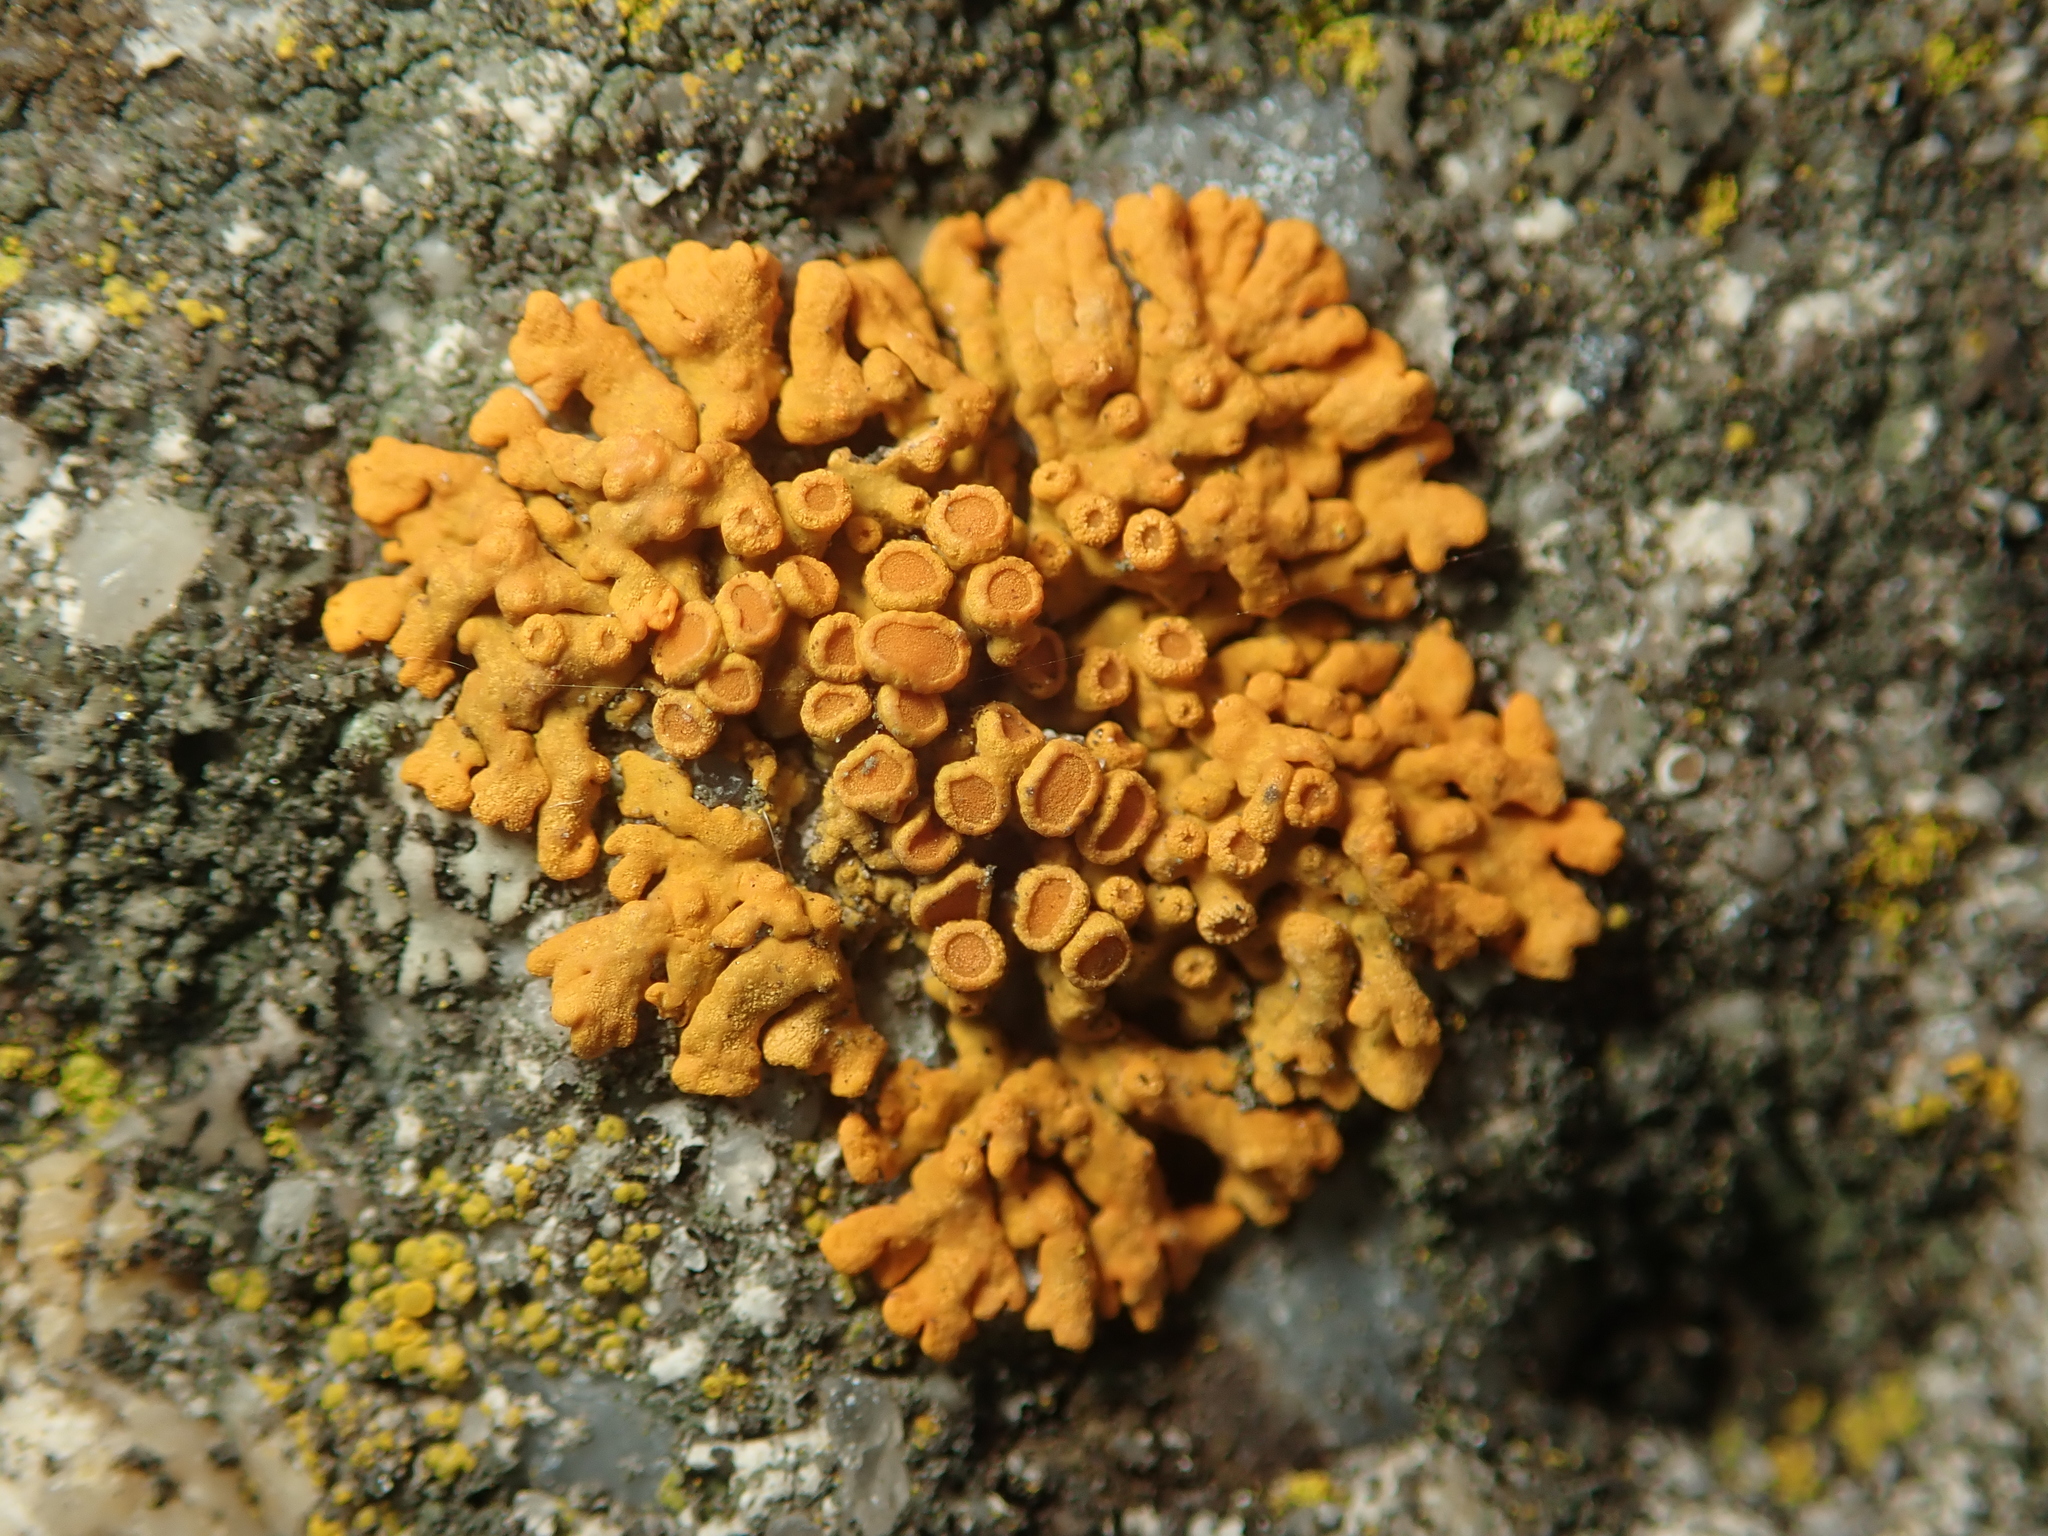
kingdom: Fungi
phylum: Ascomycota
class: Lecanoromycetes
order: Teloschistales
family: Teloschistaceae
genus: Xanthoria
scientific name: Xanthoria elegans
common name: Elegant sunburst lichen
